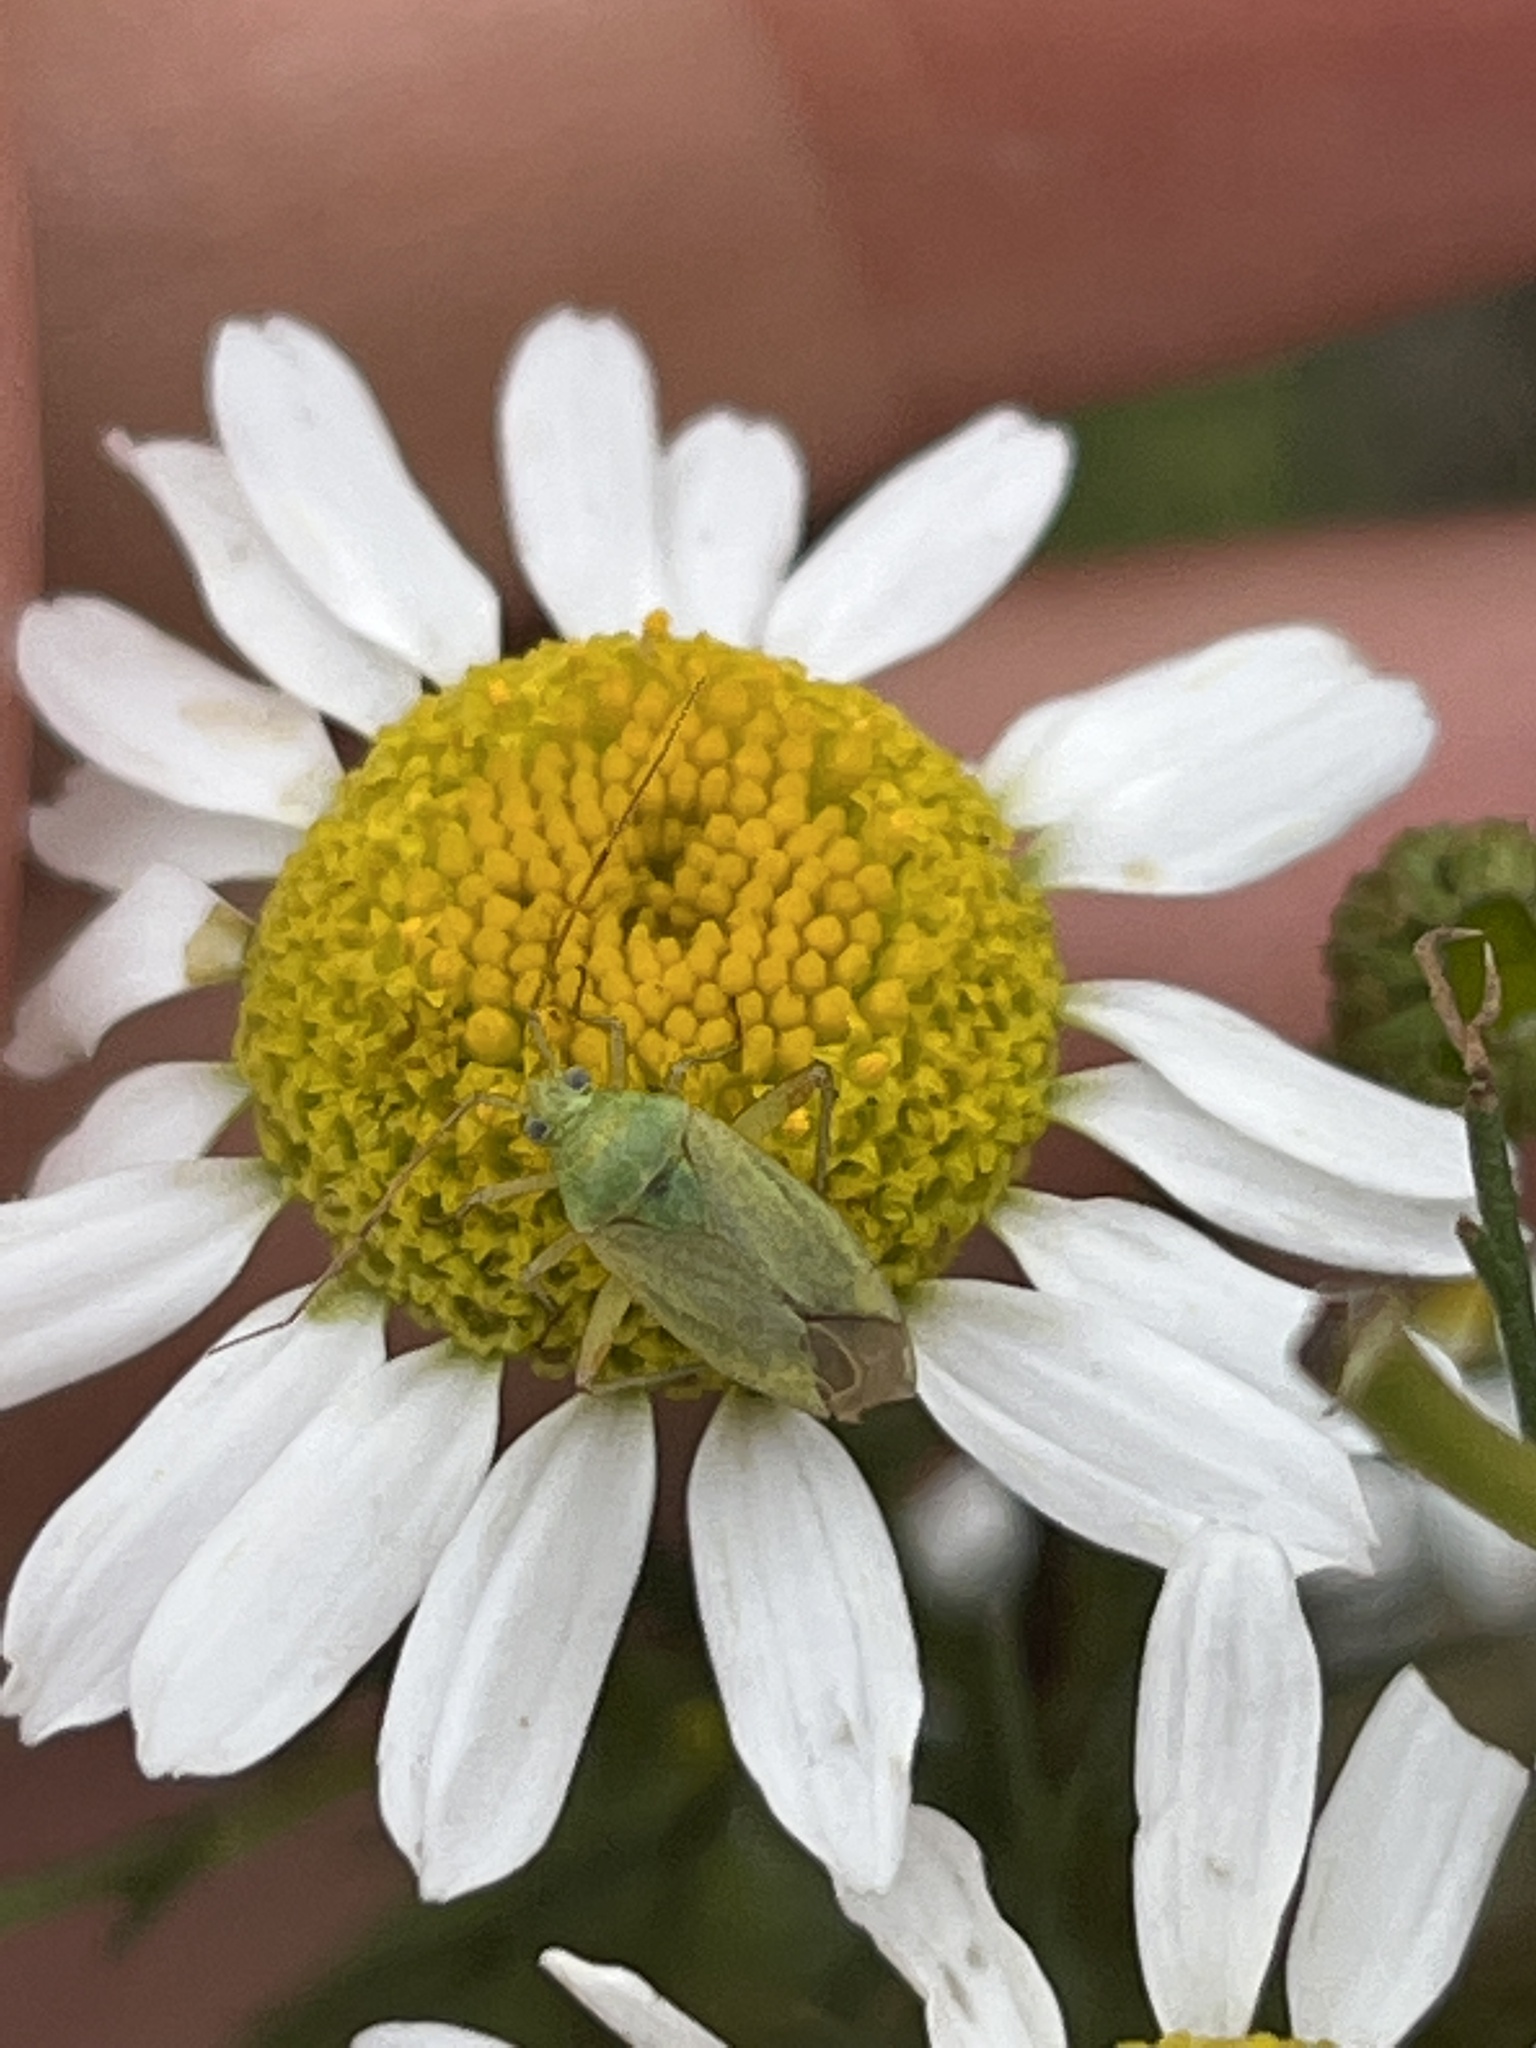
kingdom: Animalia
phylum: Arthropoda
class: Insecta
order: Hemiptera
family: Miridae
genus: Closterotomus
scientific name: Closterotomus norvegicus
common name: Plant bug
